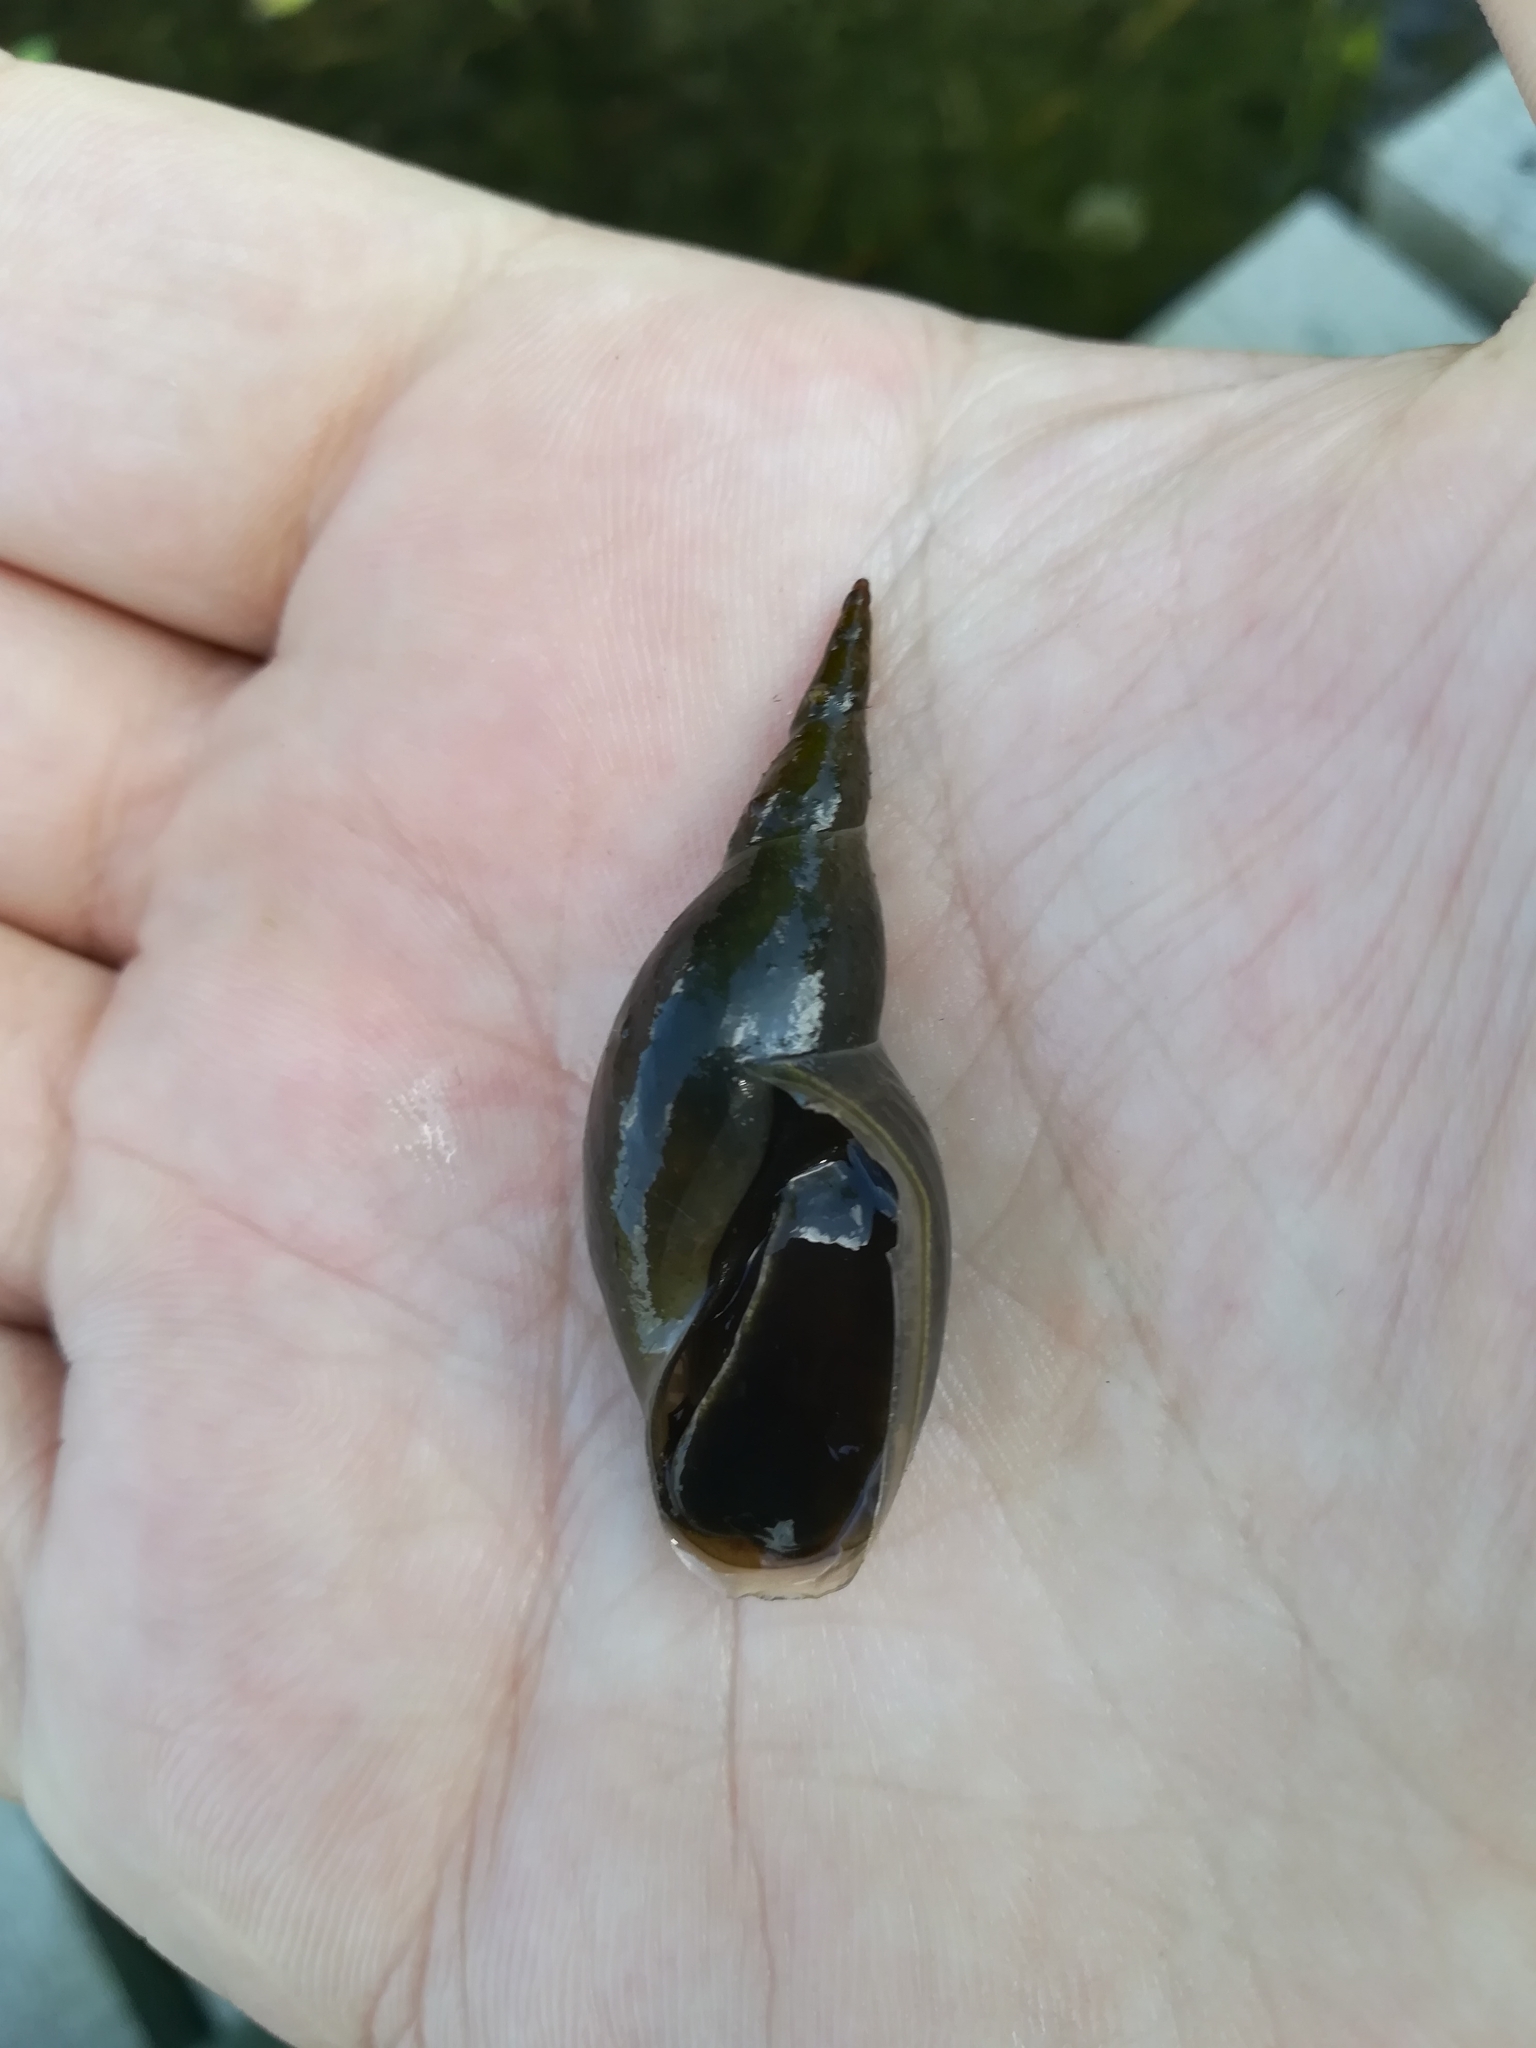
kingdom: Animalia
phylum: Mollusca
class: Gastropoda
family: Lymnaeidae
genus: Lymnaea
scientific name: Lymnaea stagnalis
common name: Great pond snail
